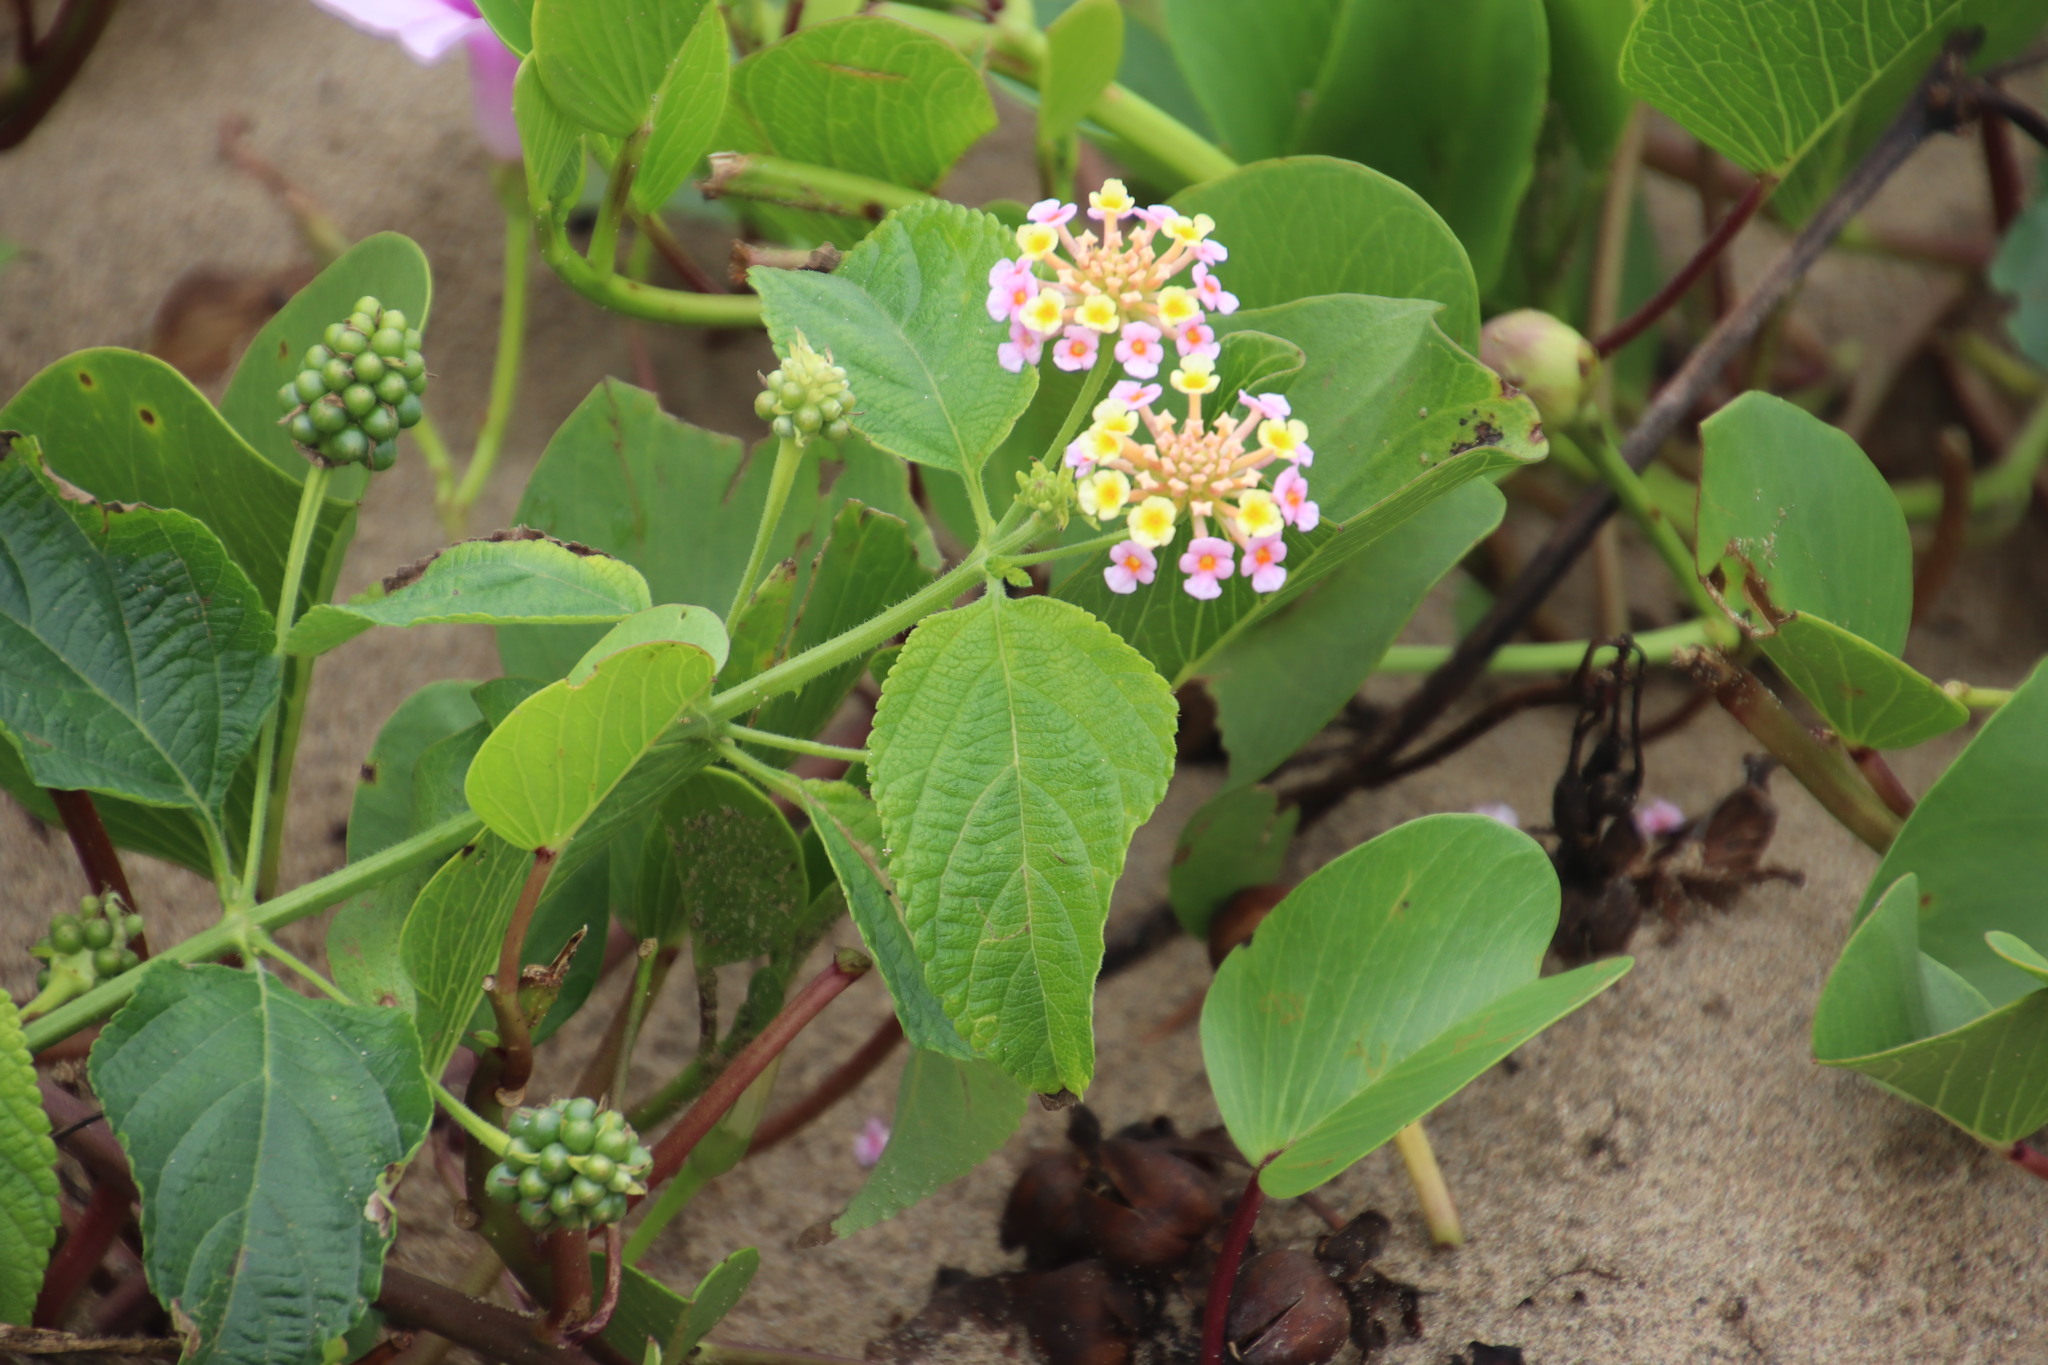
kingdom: Plantae
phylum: Tracheophyta
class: Magnoliopsida
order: Lamiales
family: Verbenaceae
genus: Lantana
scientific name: Lantana camara
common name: Lantana
